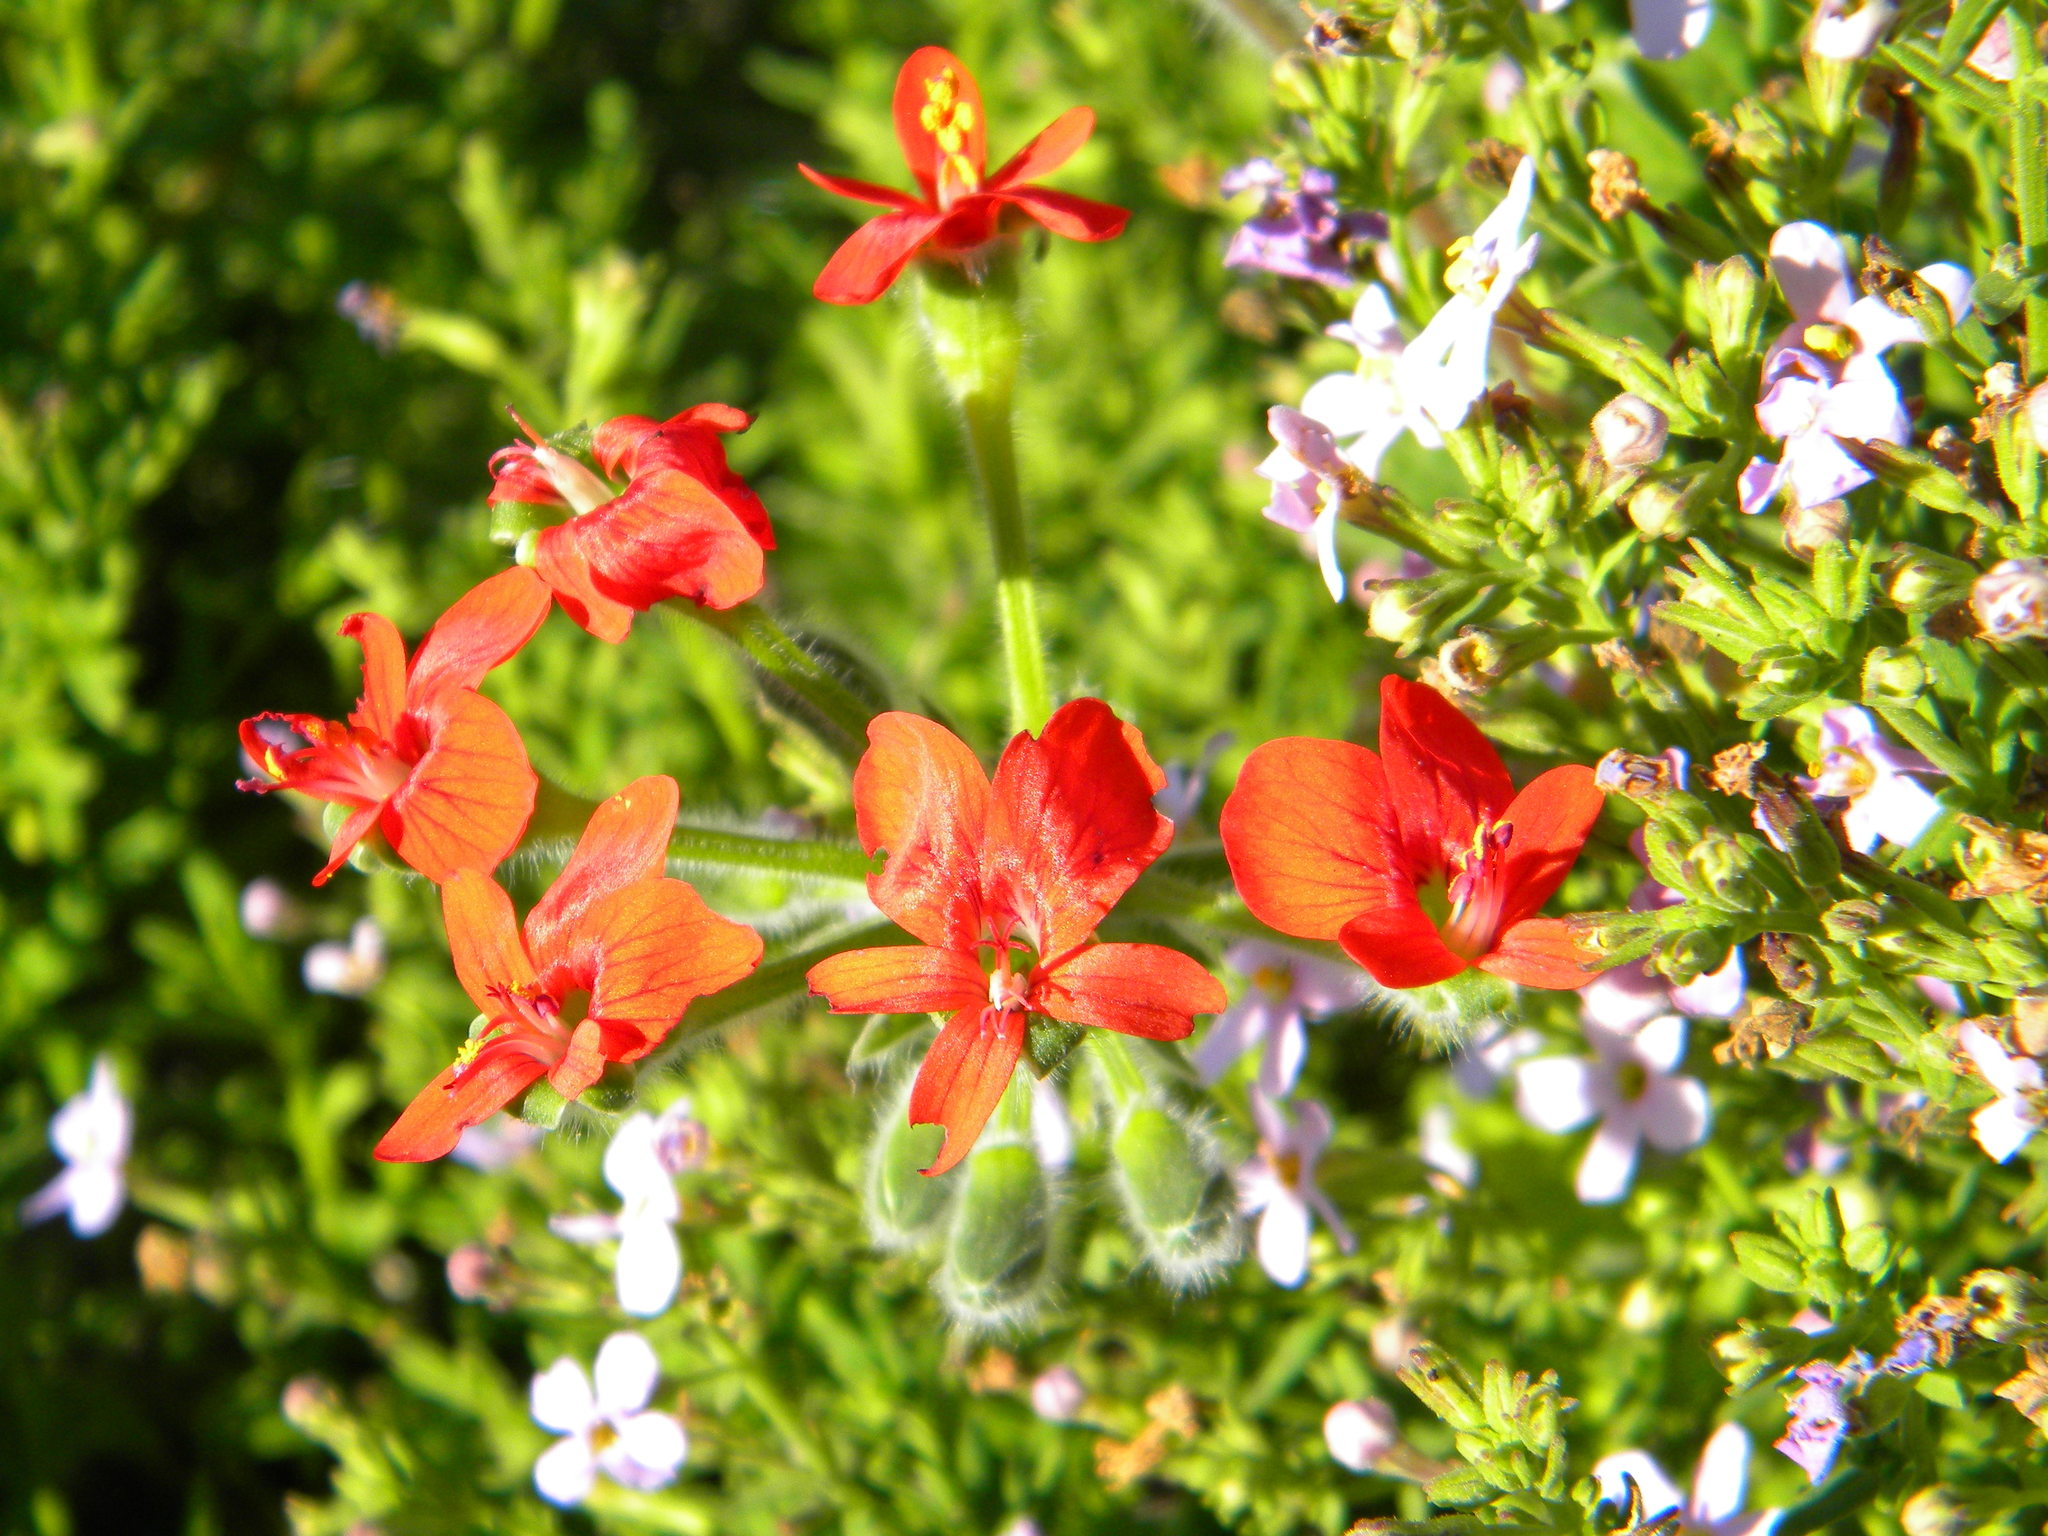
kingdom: Plantae
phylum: Tracheophyta
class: Magnoliopsida
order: Geraniales
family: Geraniaceae
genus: Pelargonium
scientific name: Pelargonium fulgidum
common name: Celandine-leaf pelargonium
